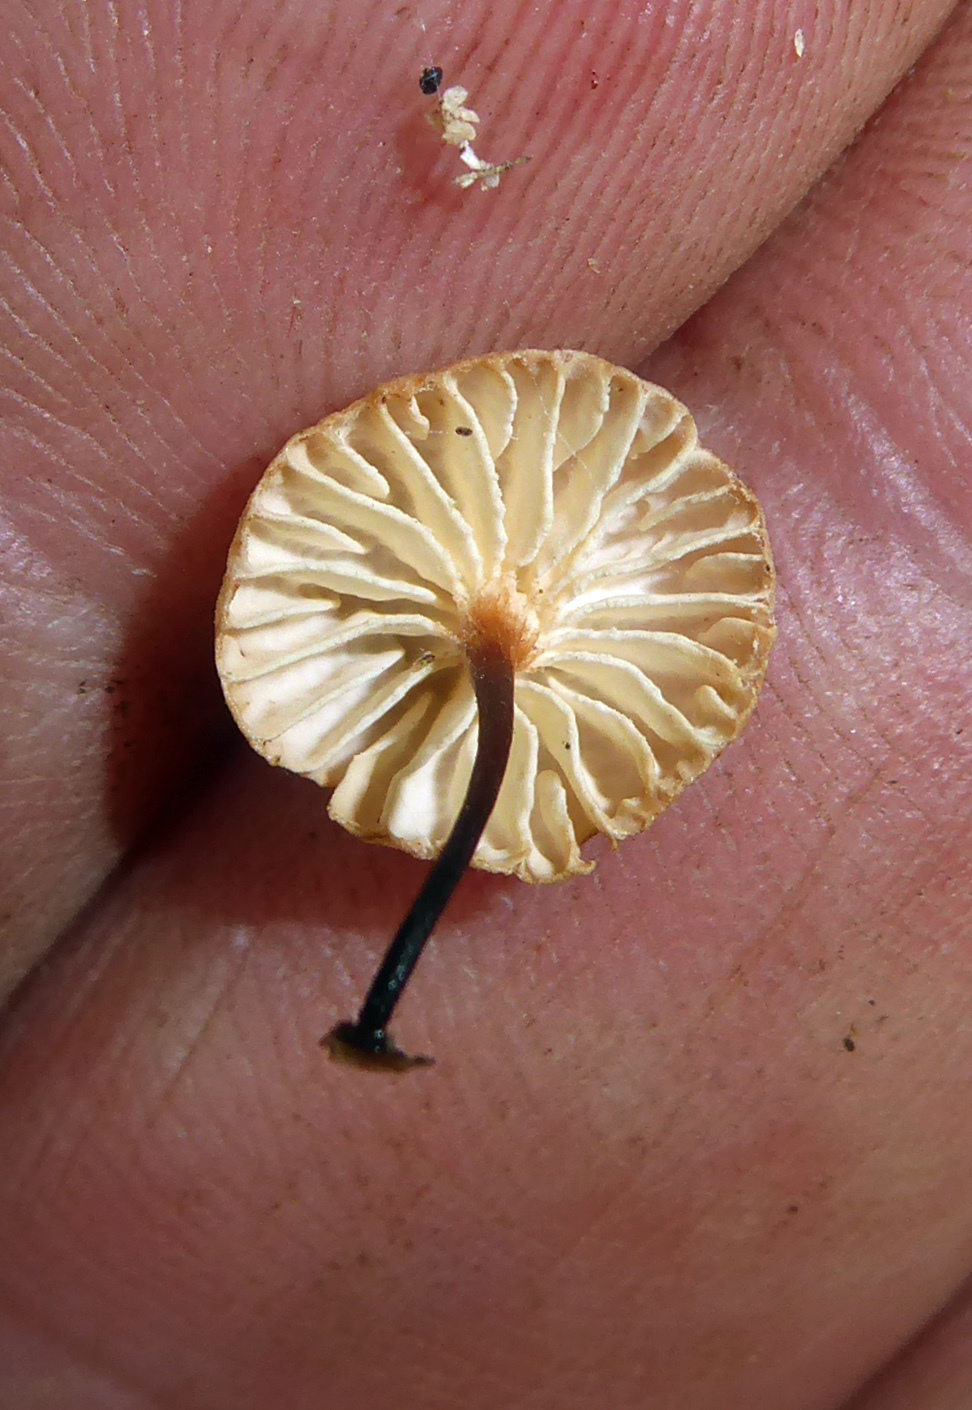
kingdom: Fungi
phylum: Basidiomycota
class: Agaricomycetes
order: Agaricales
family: Omphalotaceae
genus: Mycetinis
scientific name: Mycetinis curraniae
